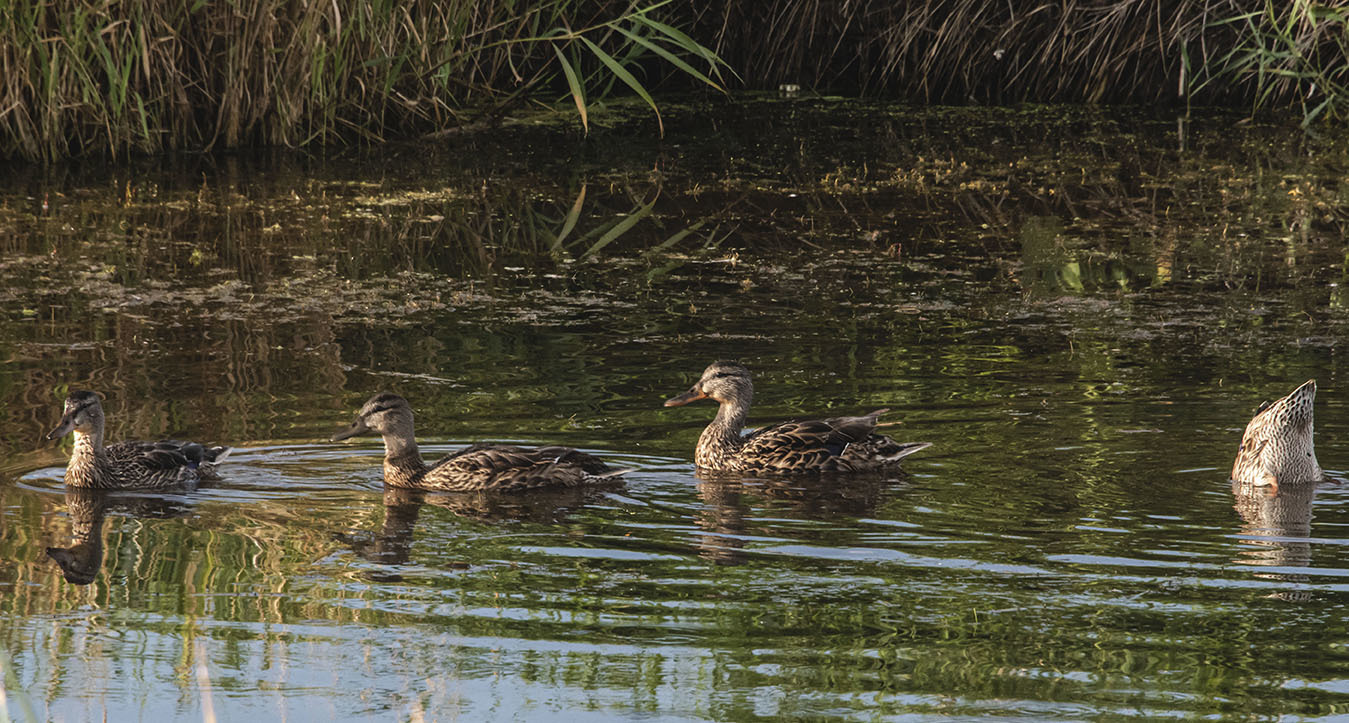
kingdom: Animalia
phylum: Chordata
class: Aves
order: Anseriformes
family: Anatidae
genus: Anas
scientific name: Anas platyrhynchos
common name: Mallard
